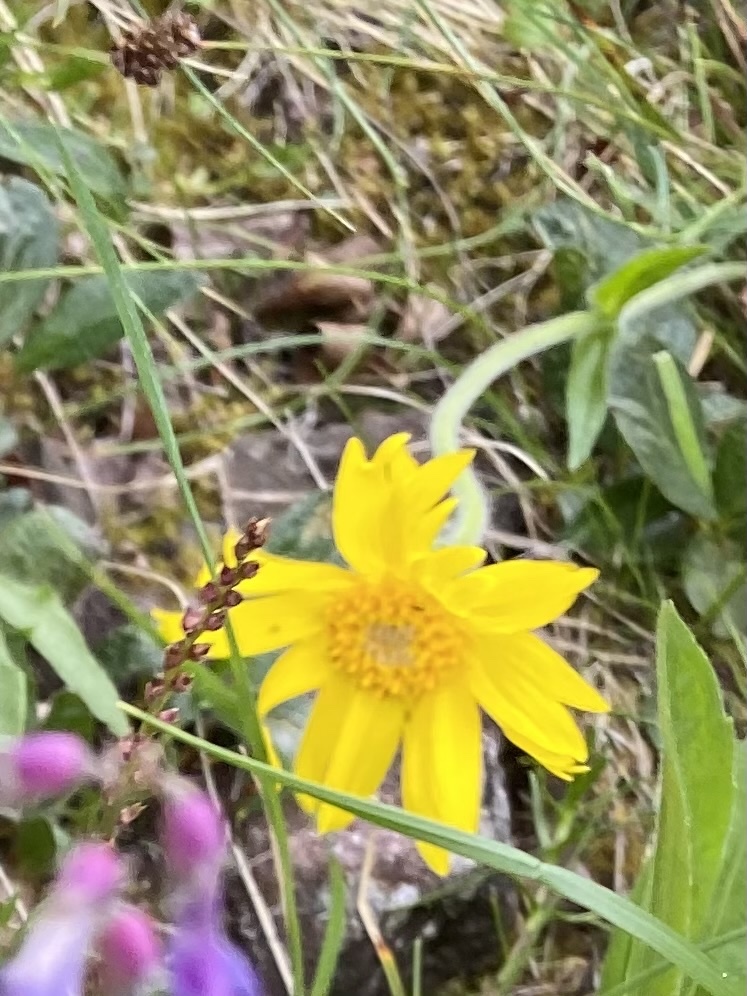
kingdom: Plantae
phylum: Tracheophyta
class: Magnoliopsida
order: Asterales
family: Asteraceae
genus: Arnica
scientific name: Arnica angustifolia
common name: Arctic arnica
